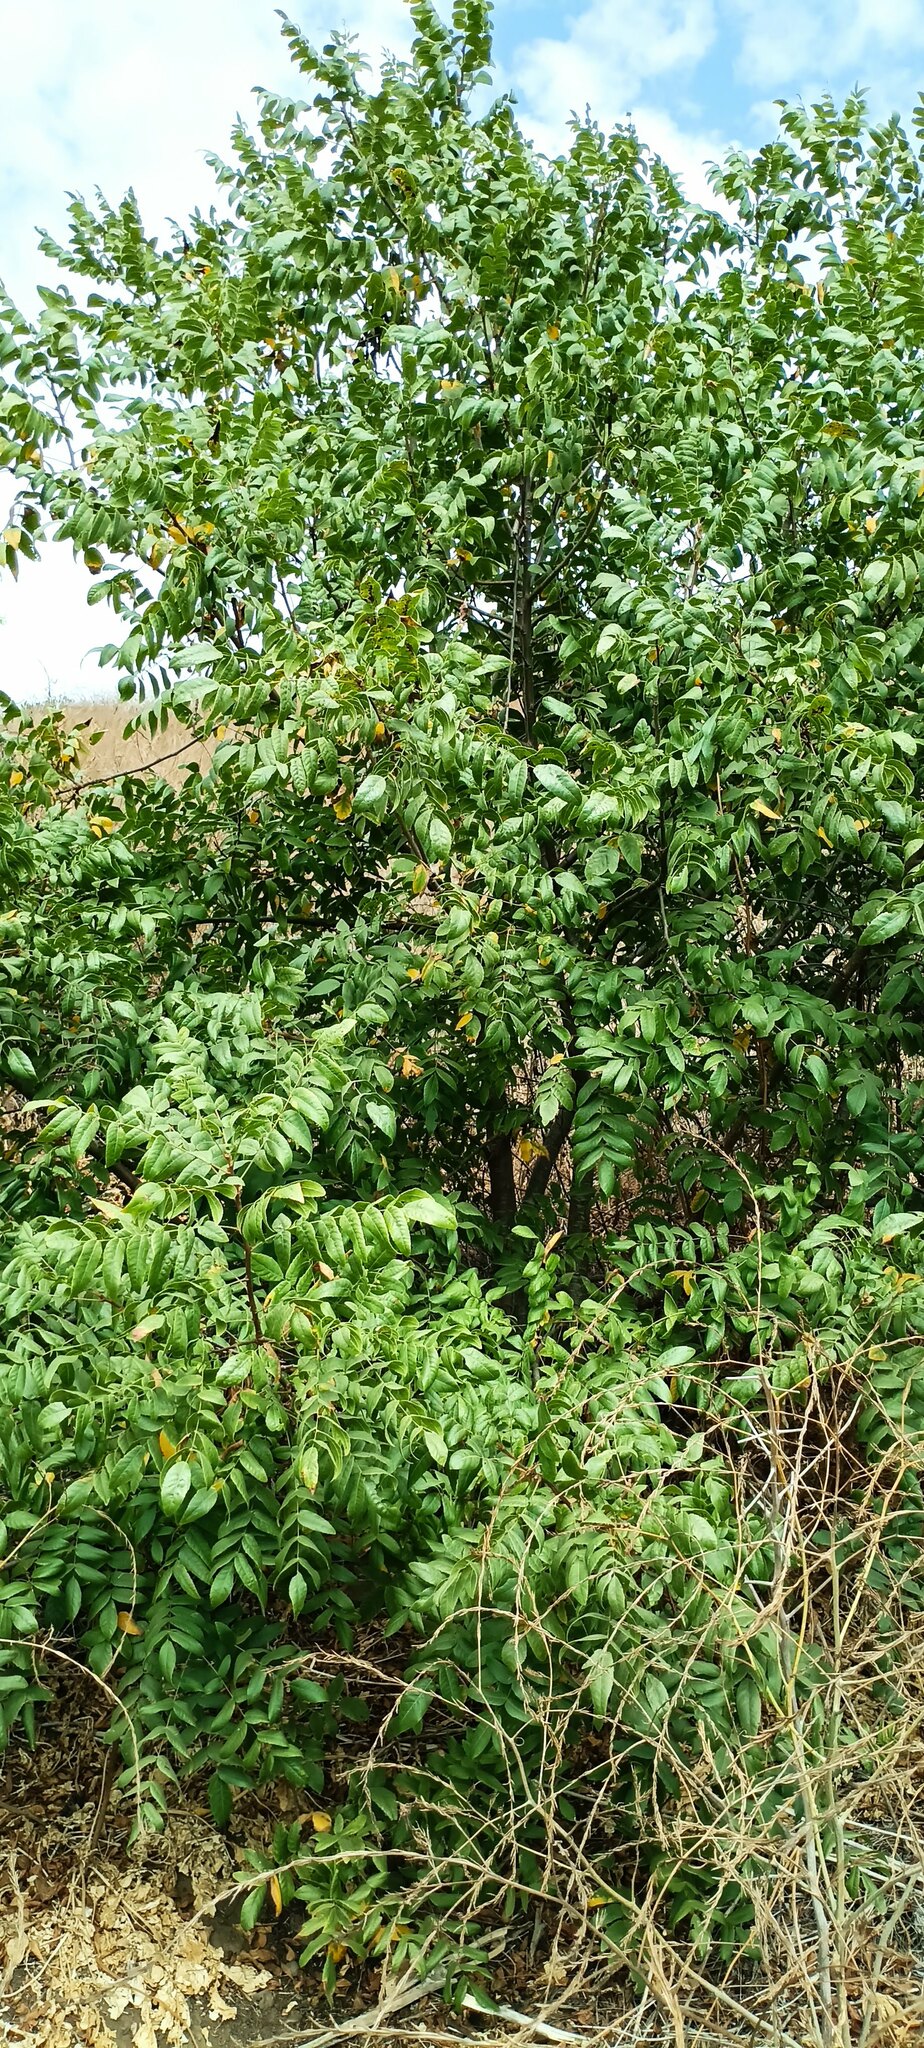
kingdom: Plantae
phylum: Tracheophyta
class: Magnoliopsida
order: Fagales
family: Juglandaceae
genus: Juglans
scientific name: Juglans californica
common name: Southern california black walnut
